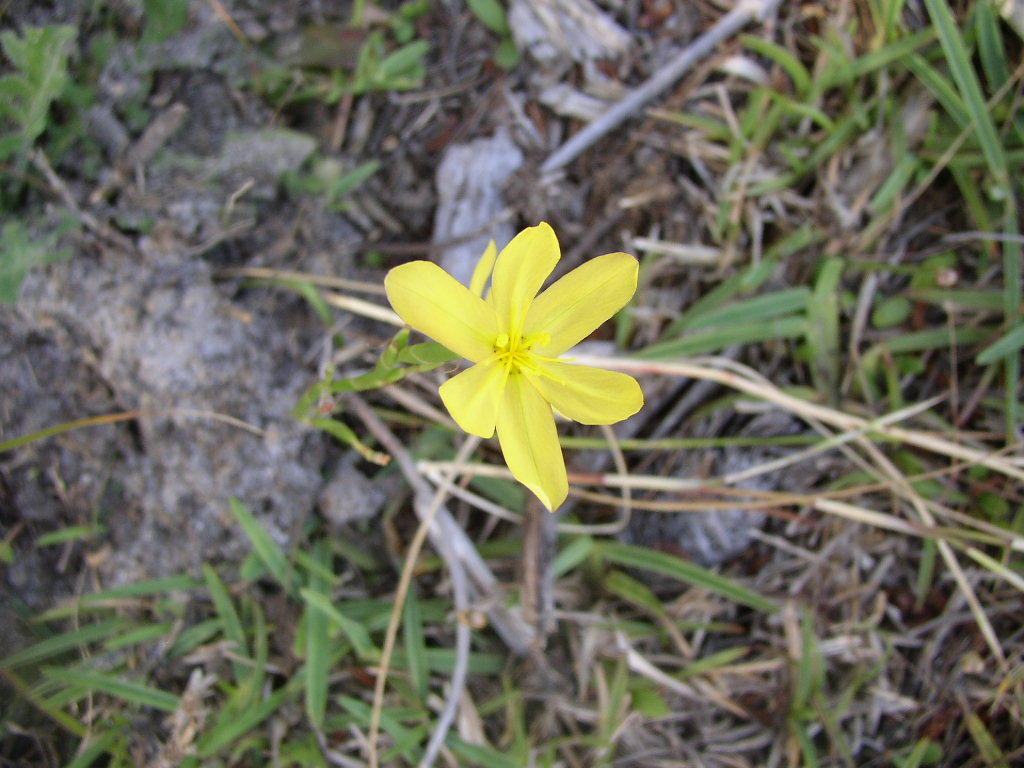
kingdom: Plantae
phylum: Tracheophyta
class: Liliopsida
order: Asparagales
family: Iridaceae
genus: Moraea
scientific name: Moraea lewisiae
